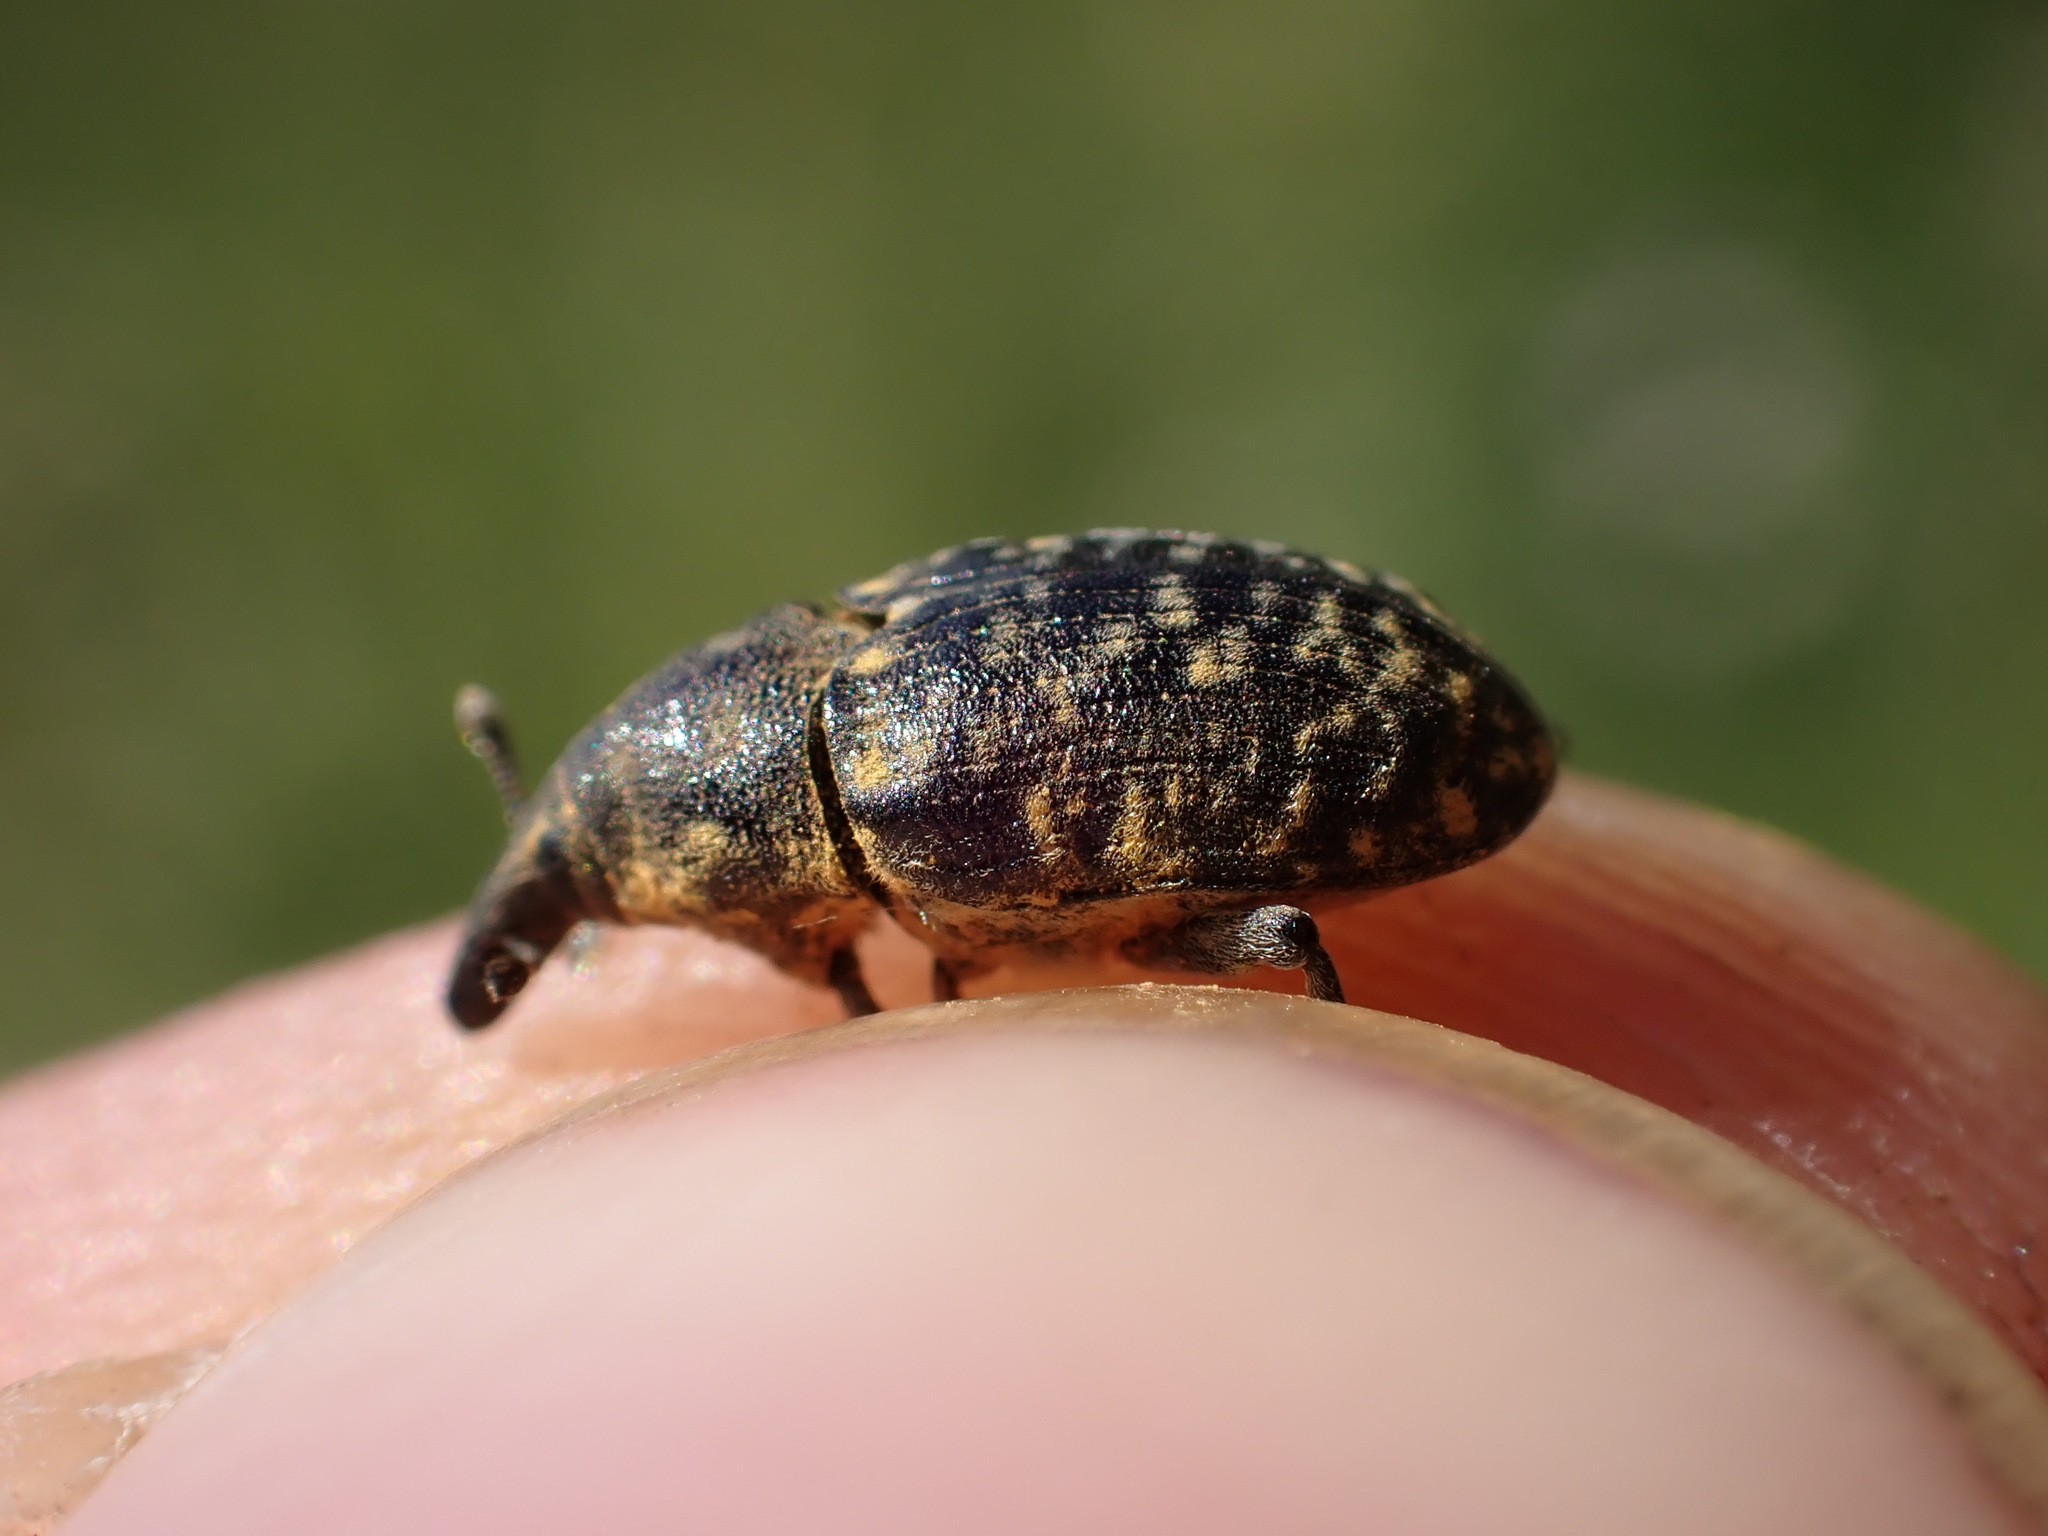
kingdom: Animalia
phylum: Arthropoda
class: Insecta
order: Coleoptera
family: Curculionidae
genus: Larinus
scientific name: Larinus turbinatus
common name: Weevil
